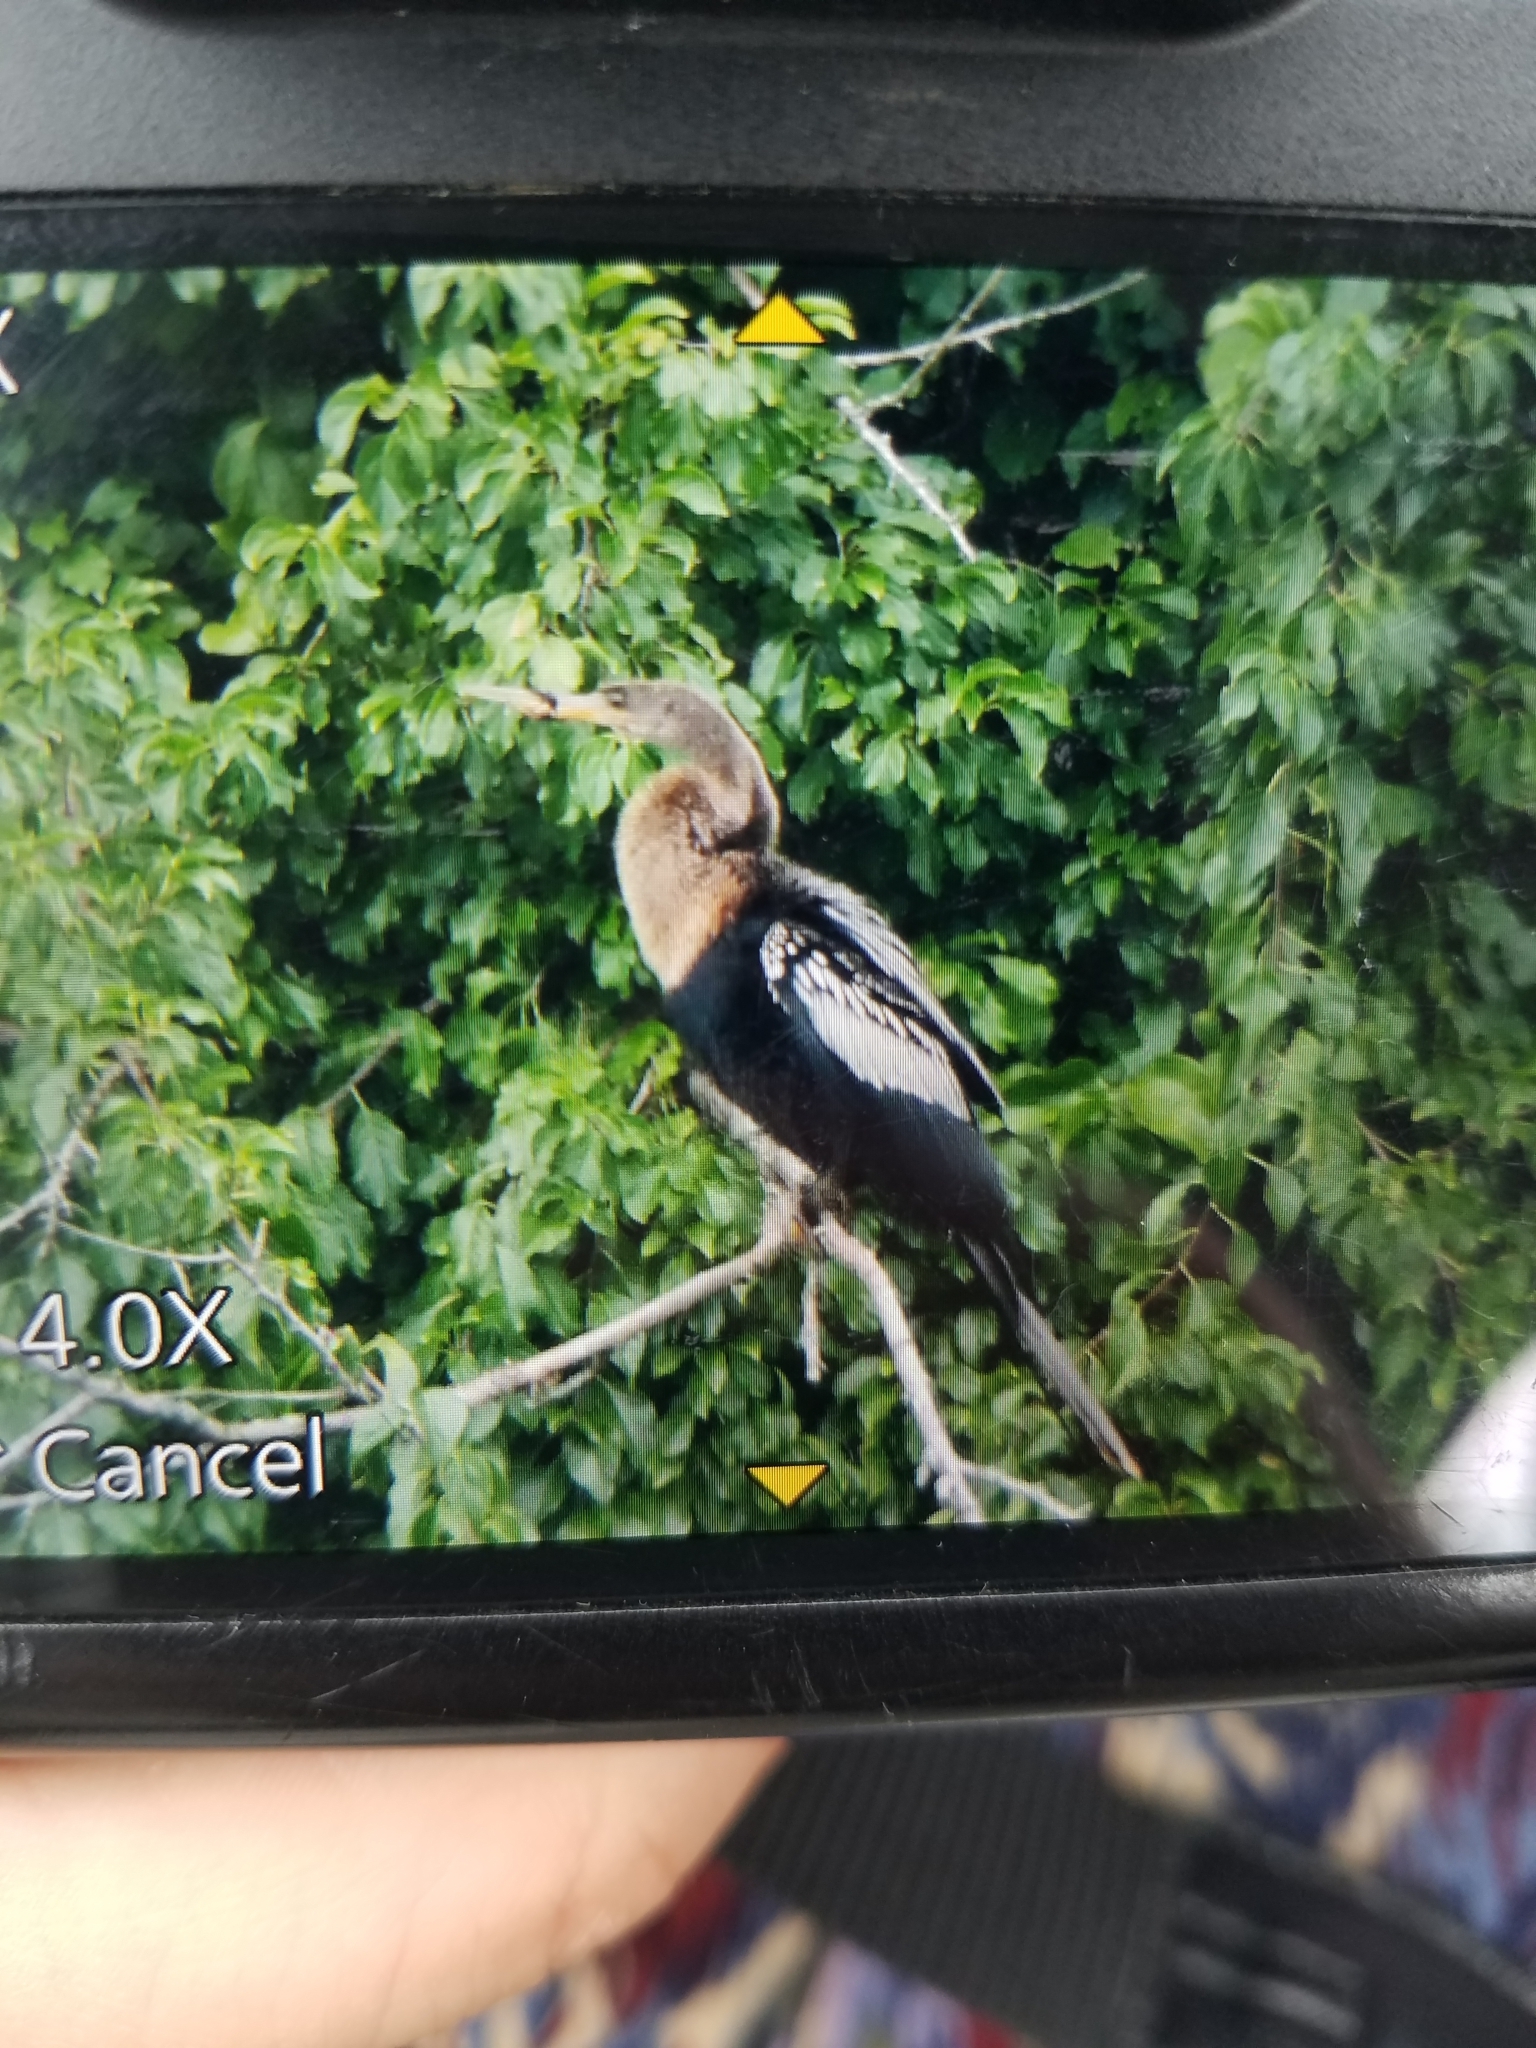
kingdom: Animalia
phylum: Chordata
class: Aves
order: Suliformes
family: Anhingidae
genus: Anhinga
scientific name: Anhinga anhinga
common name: Anhinga
